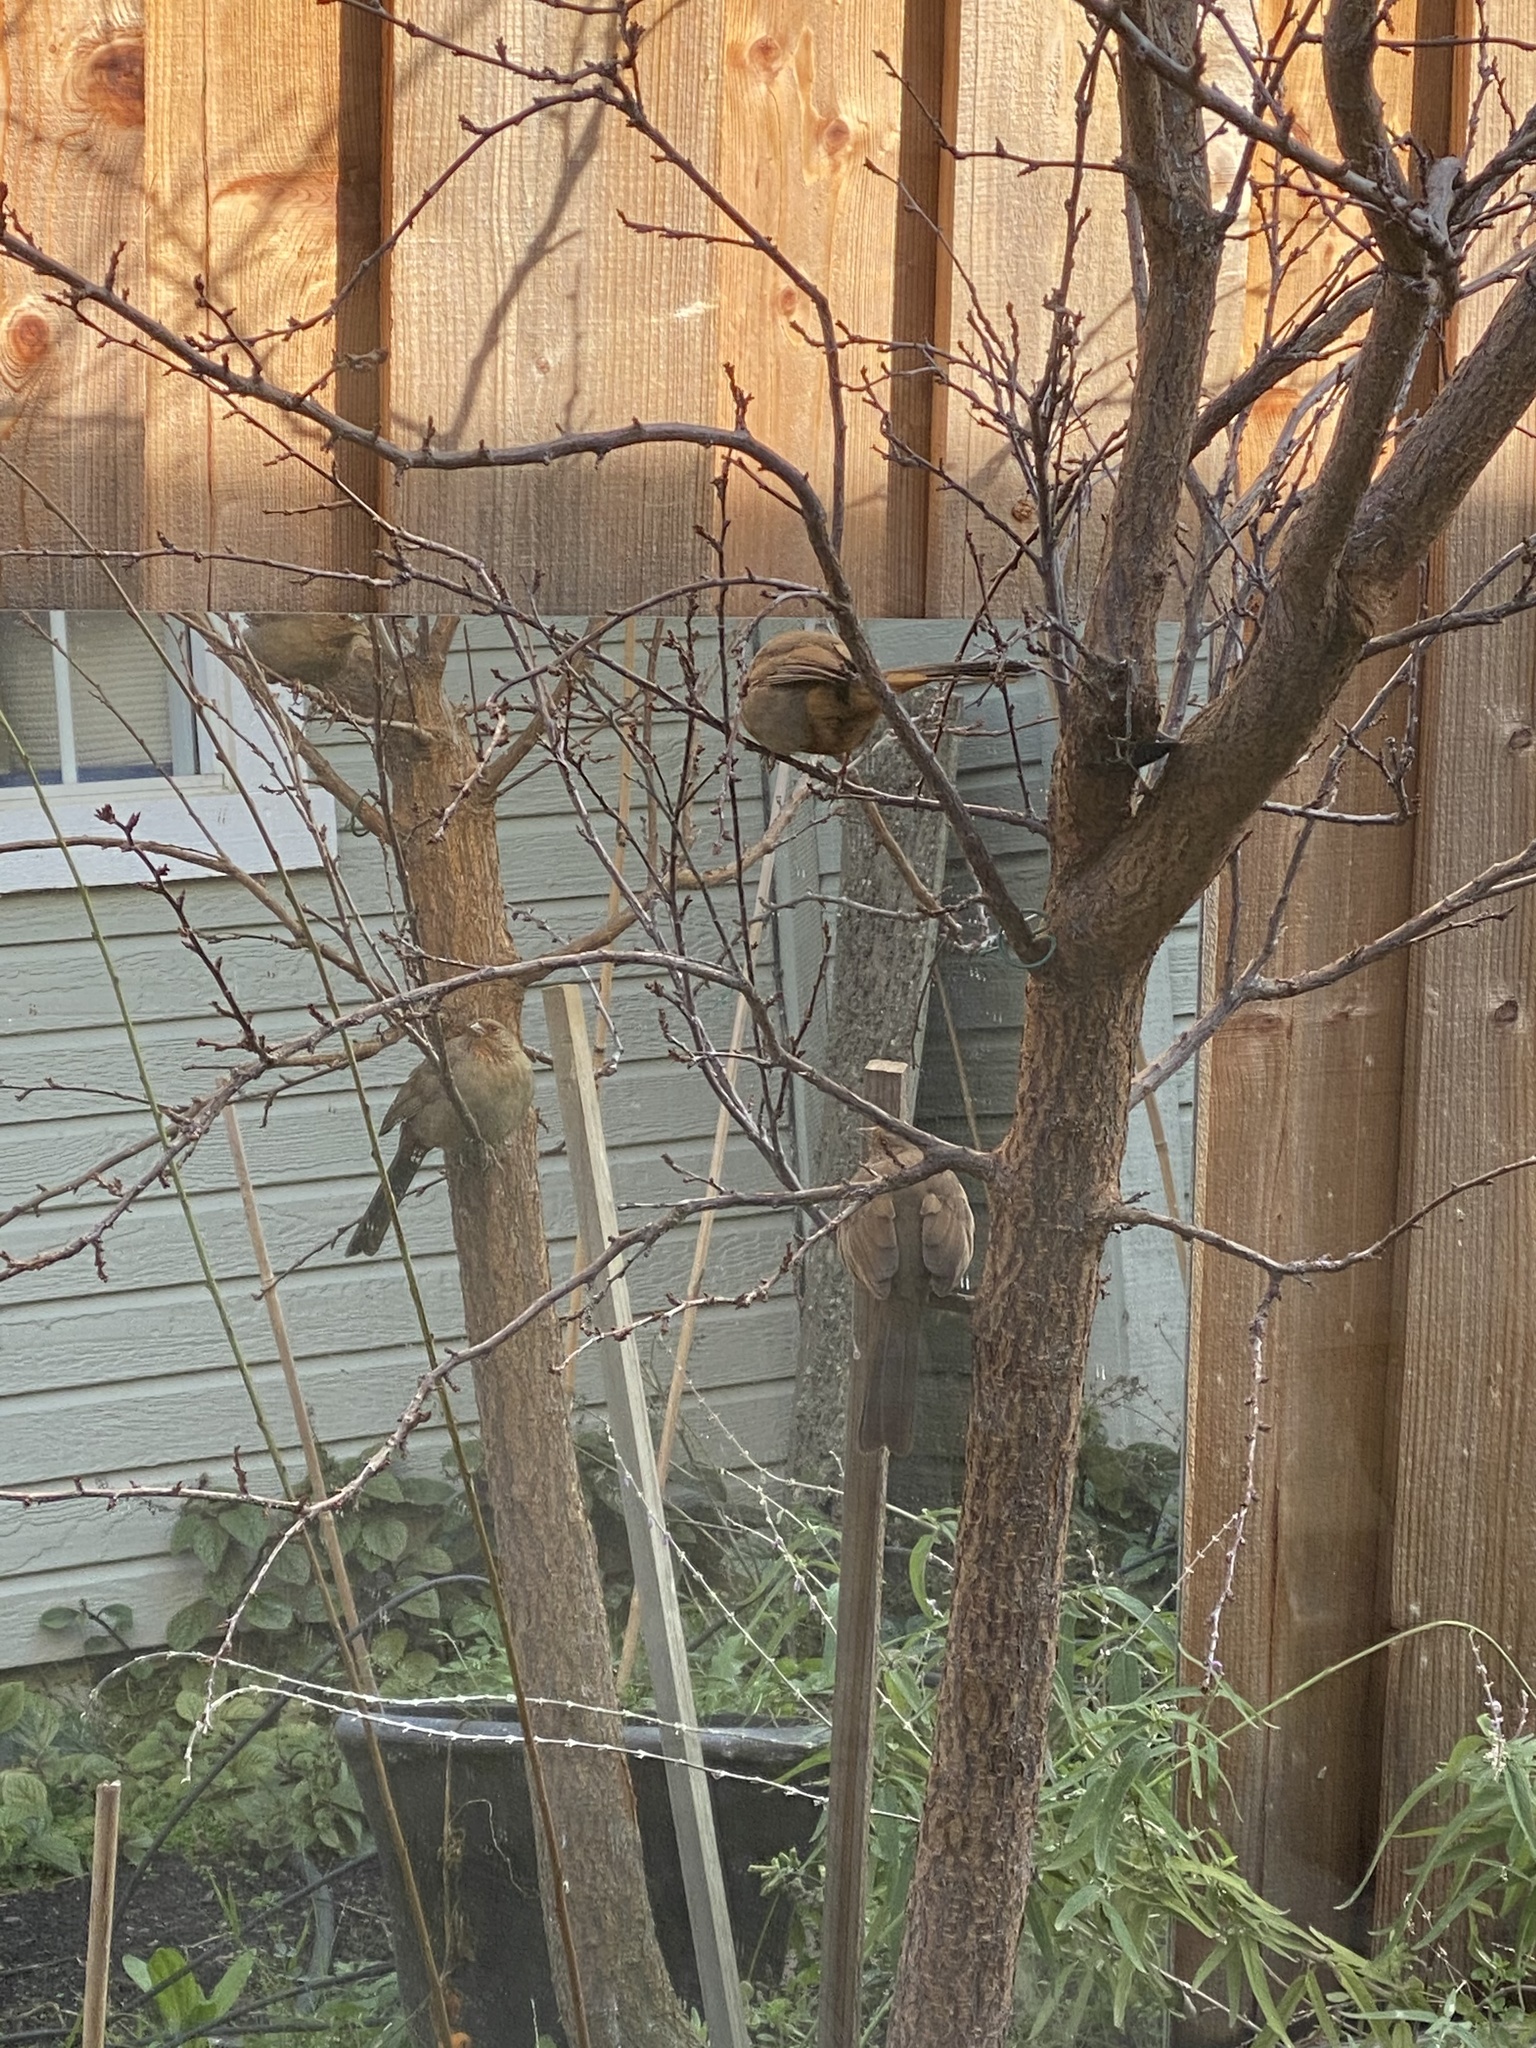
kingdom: Animalia
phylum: Chordata
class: Aves
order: Passeriformes
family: Passerellidae
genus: Melozone
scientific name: Melozone crissalis
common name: California towhee
